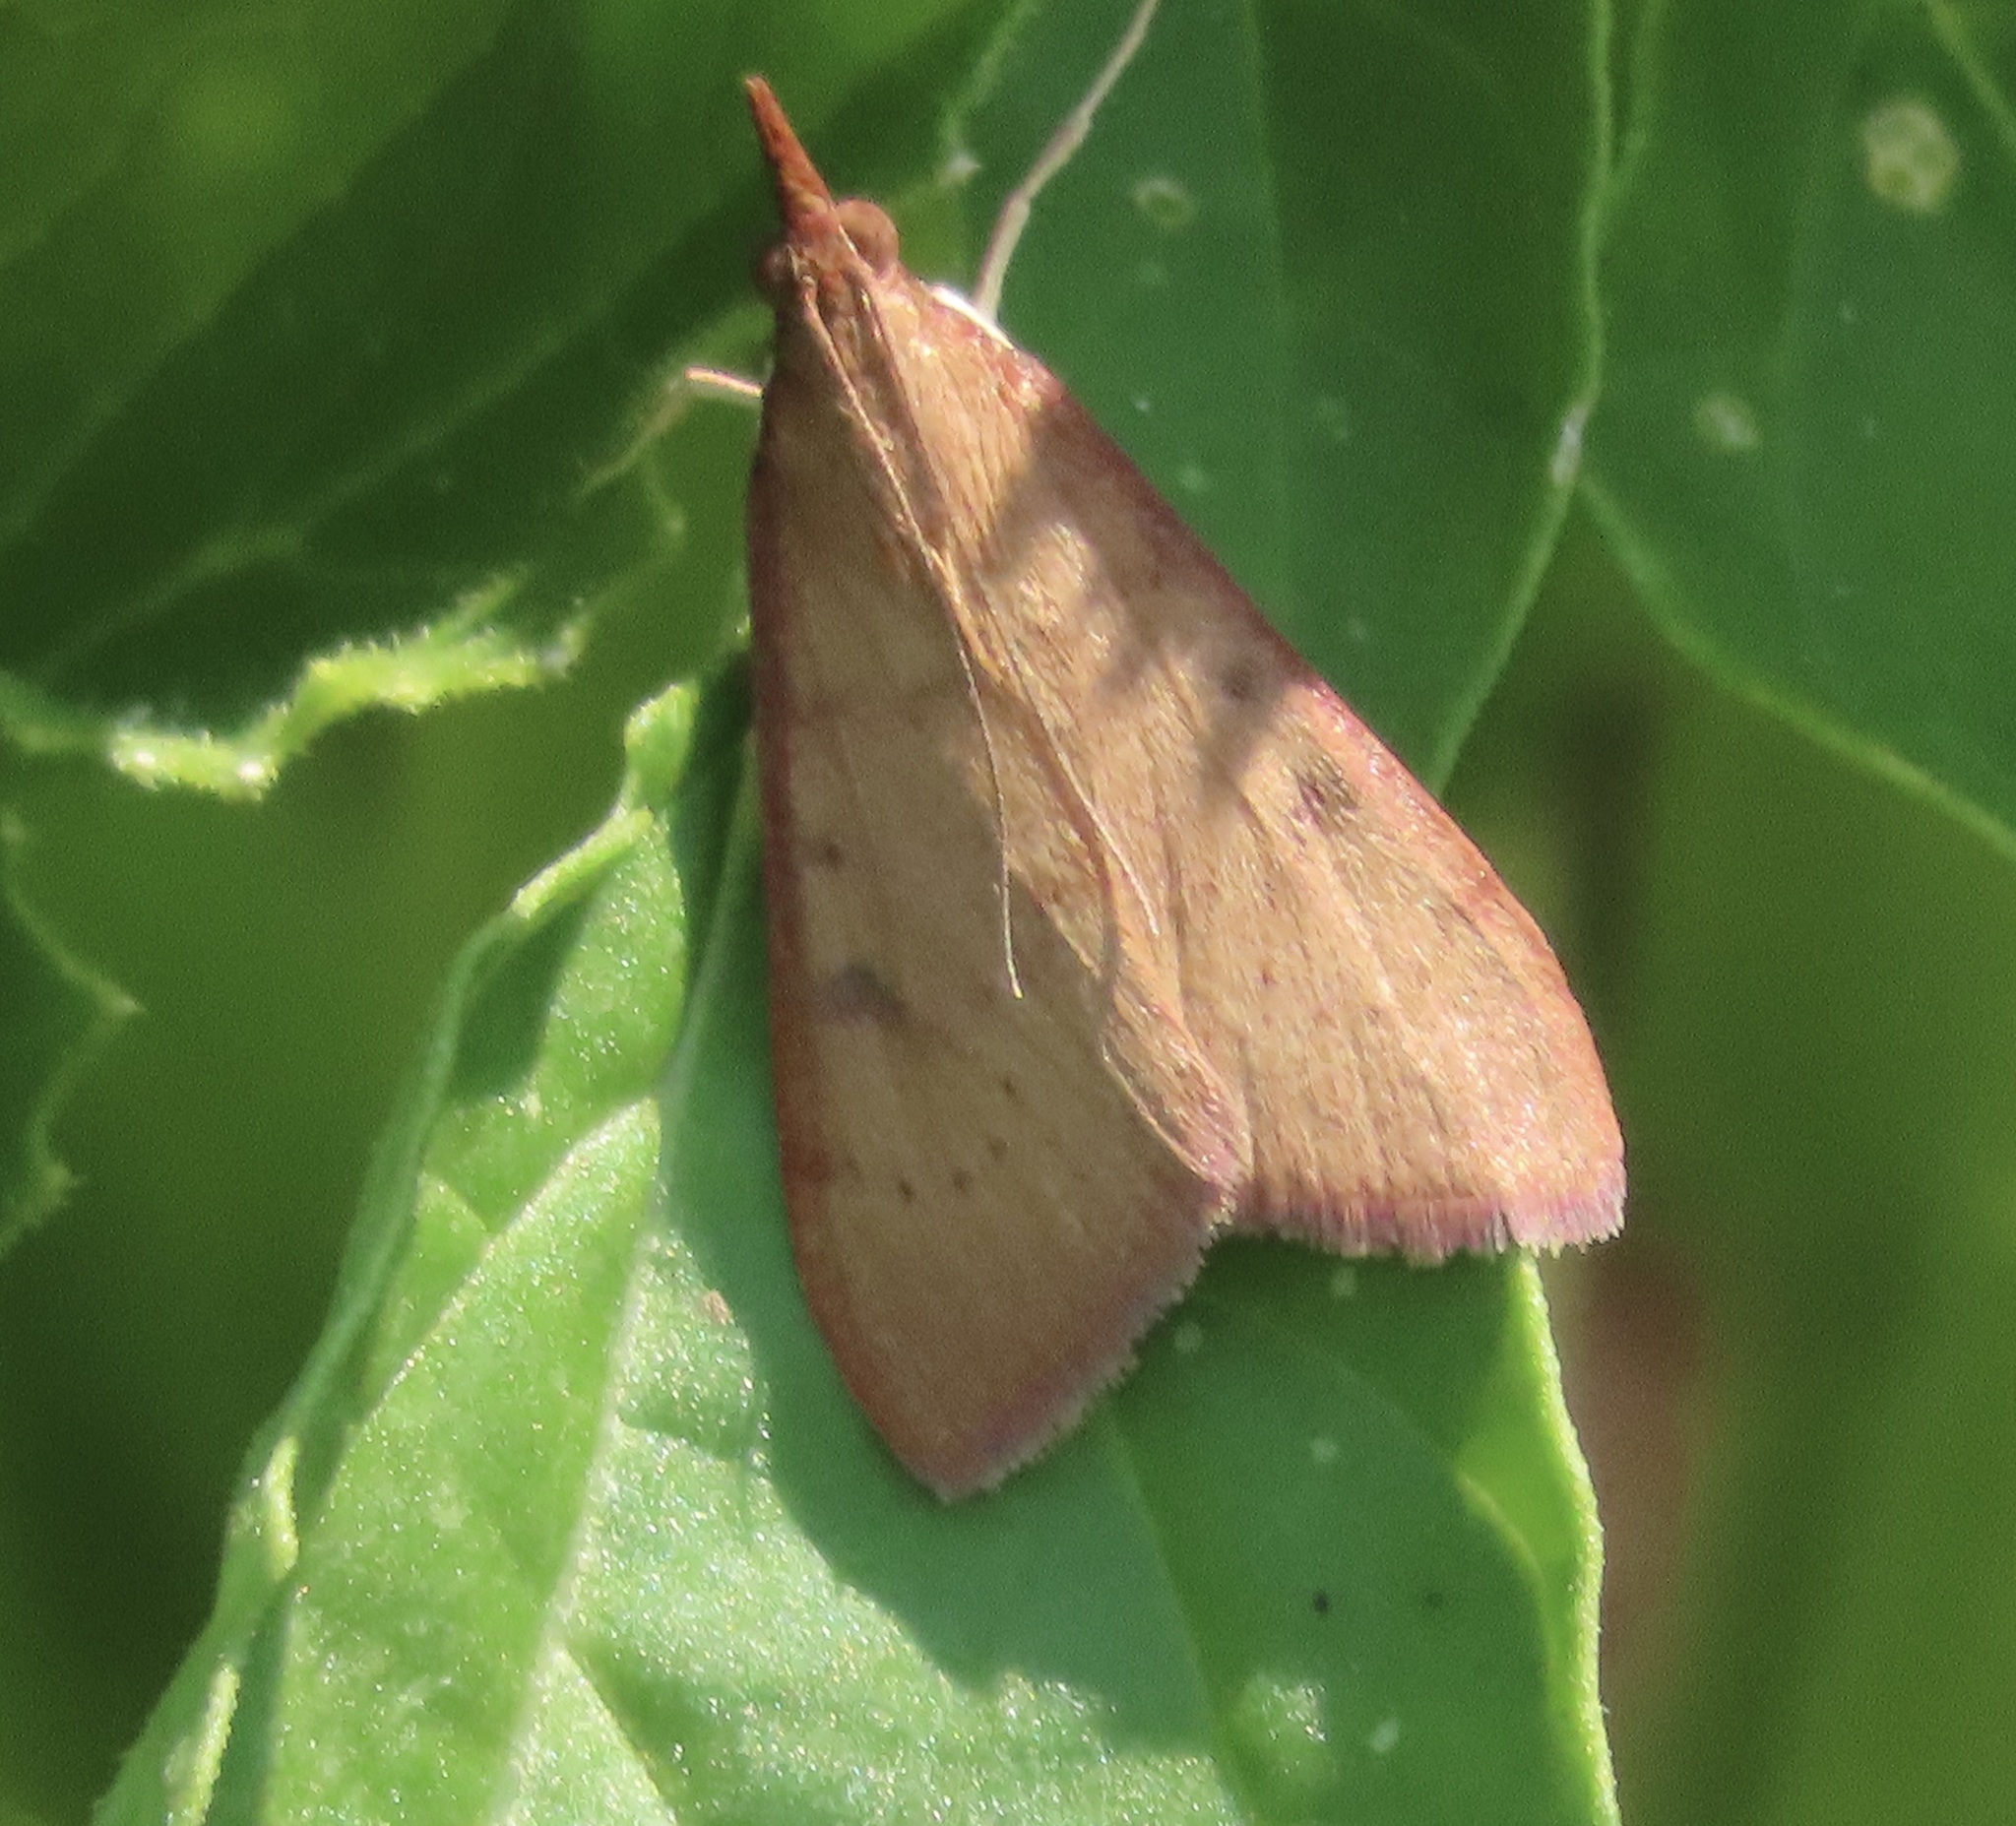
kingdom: Animalia
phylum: Arthropoda
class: Insecta
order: Lepidoptera
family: Crambidae
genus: Uresiphita
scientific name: Uresiphita reversalis
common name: Genista broom moth
